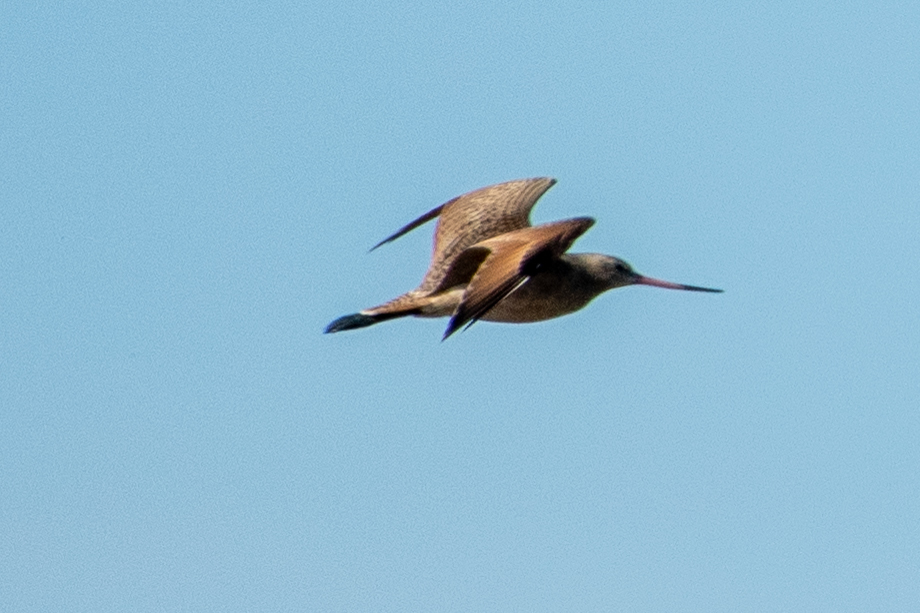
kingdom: Animalia
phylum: Chordata
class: Aves
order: Charadriiformes
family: Scolopacidae
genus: Limosa
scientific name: Limosa fedoa
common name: Marbled godwit
